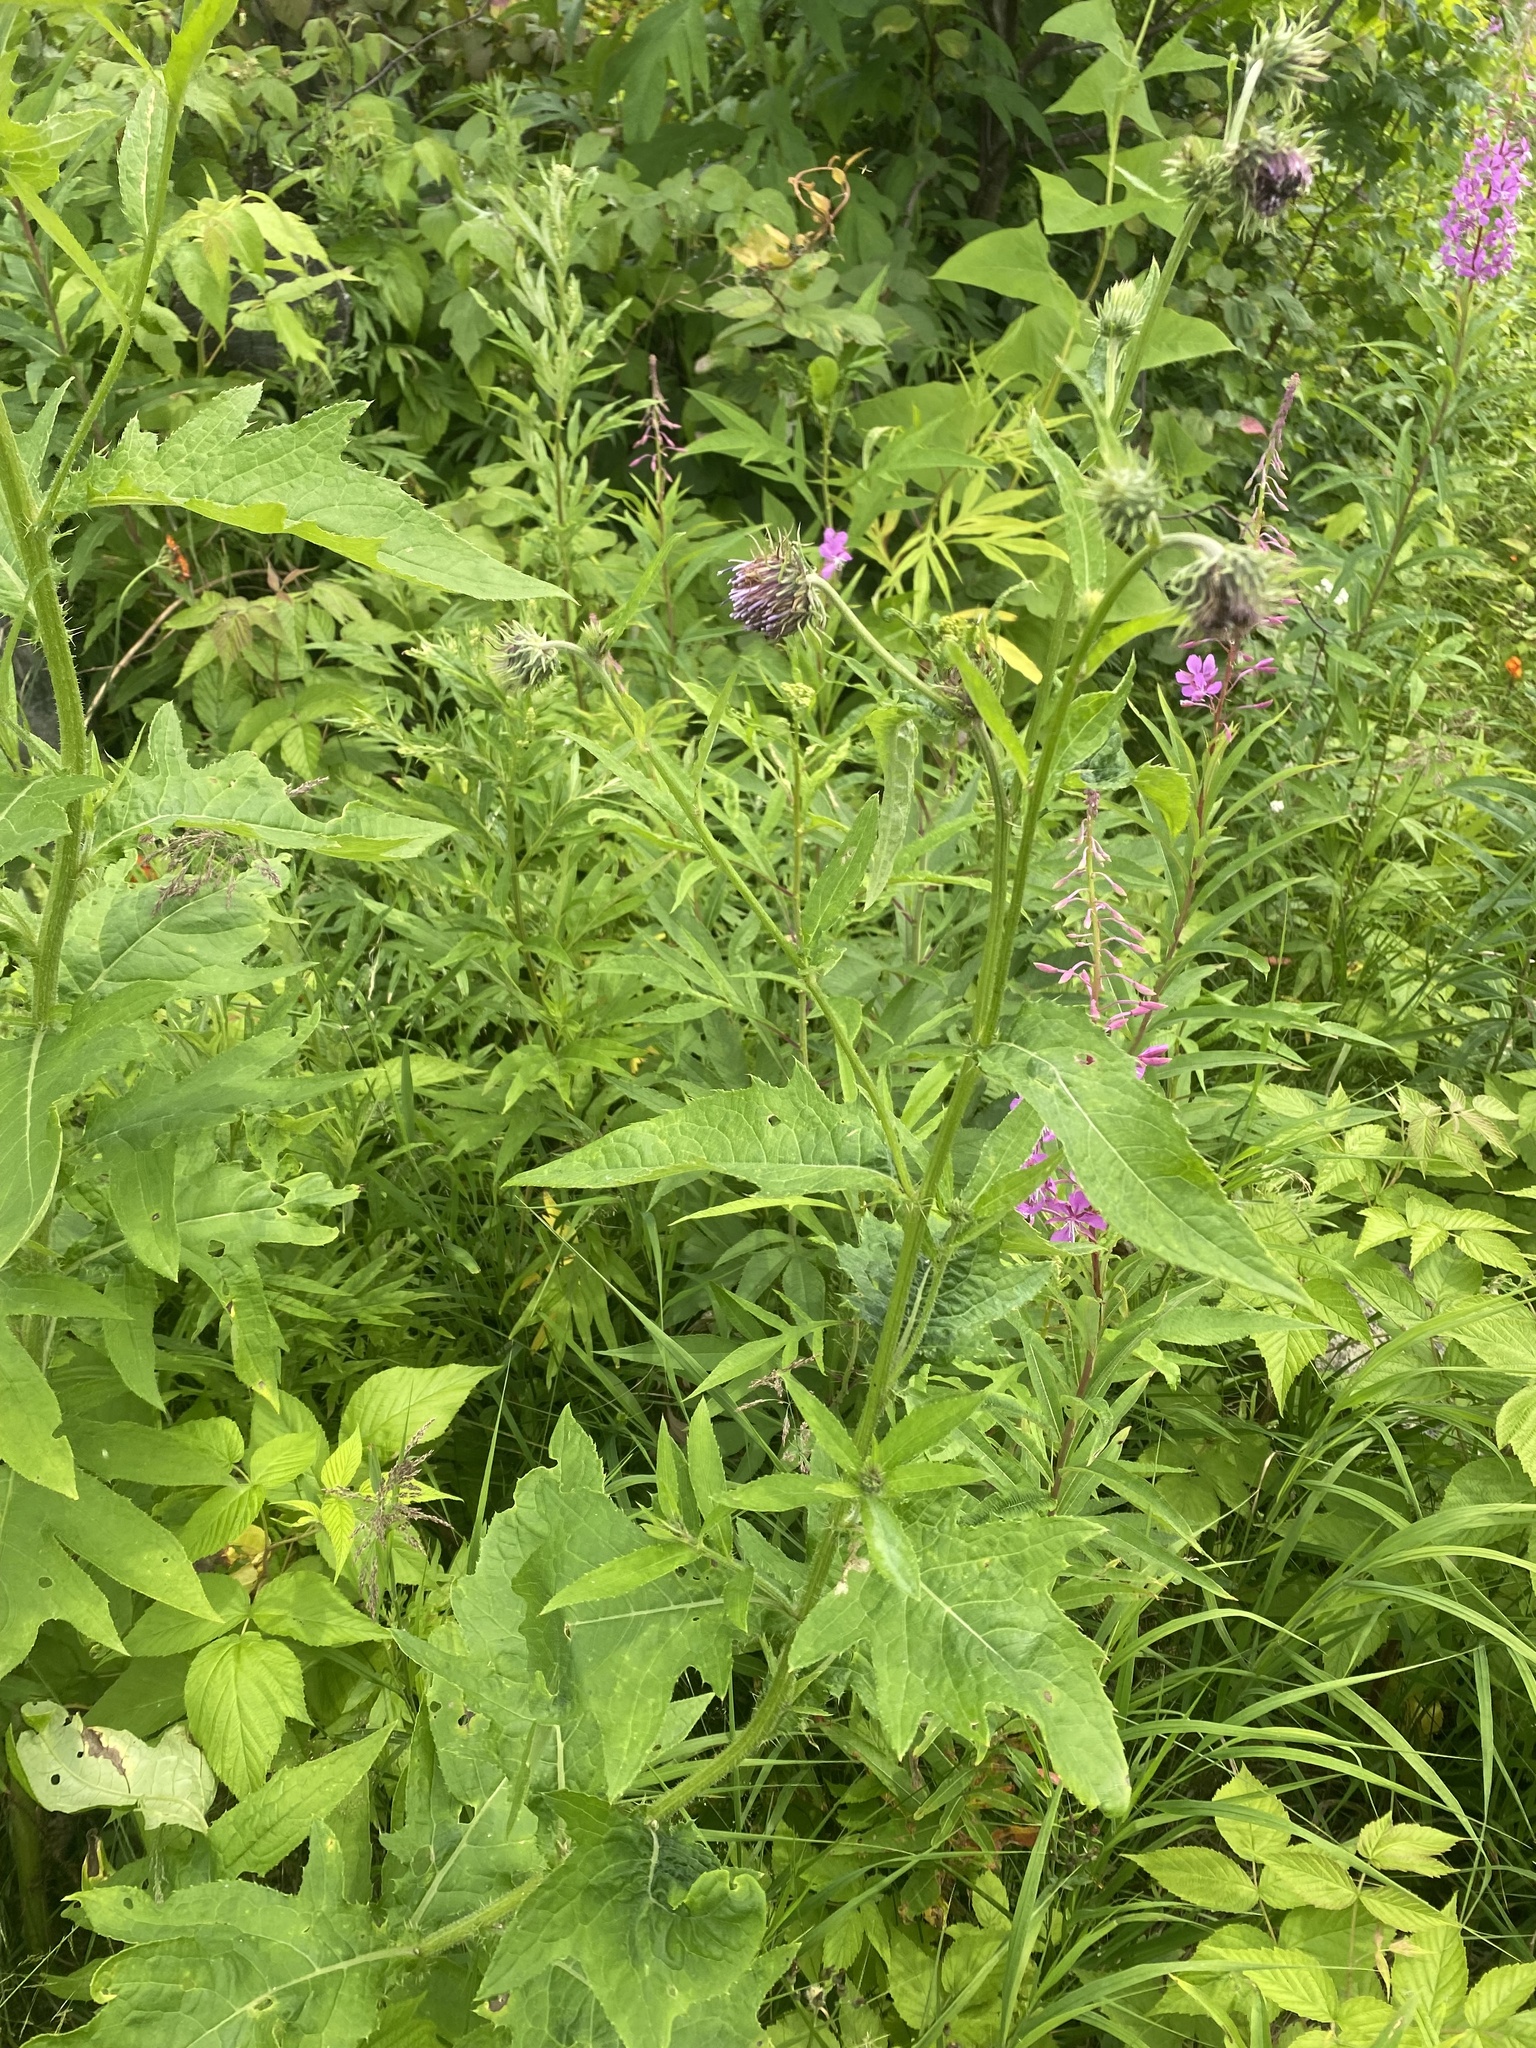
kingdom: Plantae
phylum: Tracheophyta
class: Magnoliopsida
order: Asterales
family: Asteraceae
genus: Cirsium
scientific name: Cirsium kamtschaticum
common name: Kamchatka thistle
